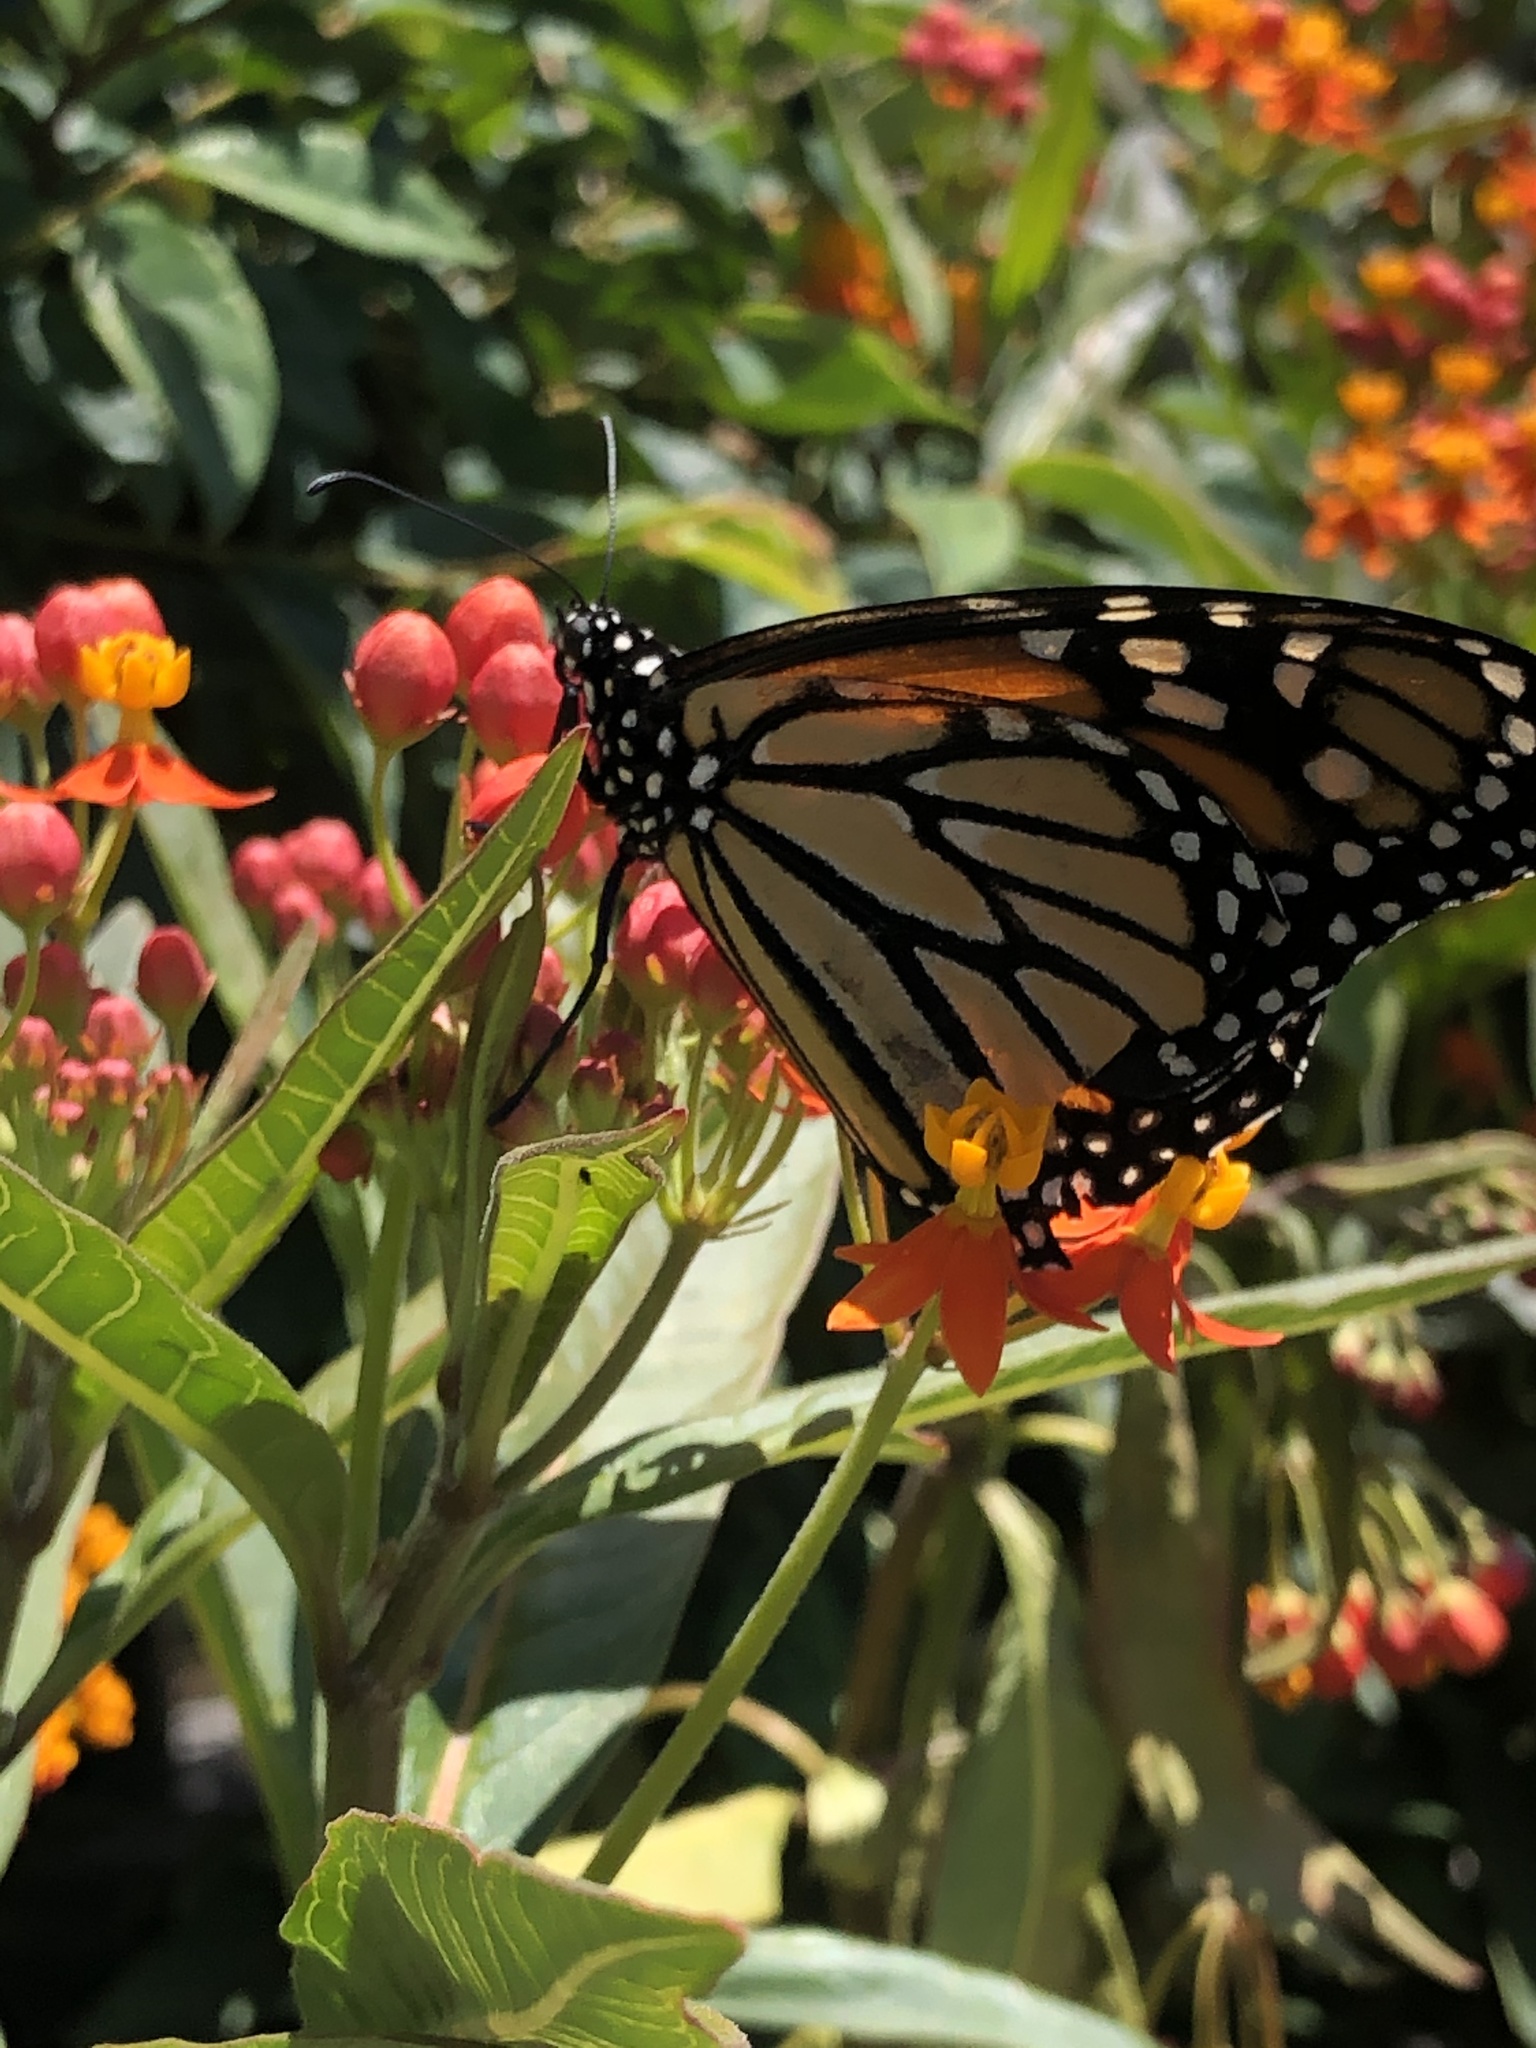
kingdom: Animalia
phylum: Arthropoda
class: Insecta
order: Lepidoptera
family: Nymphalidae
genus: Danaus
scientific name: Danaus plexippus
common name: Monarch
